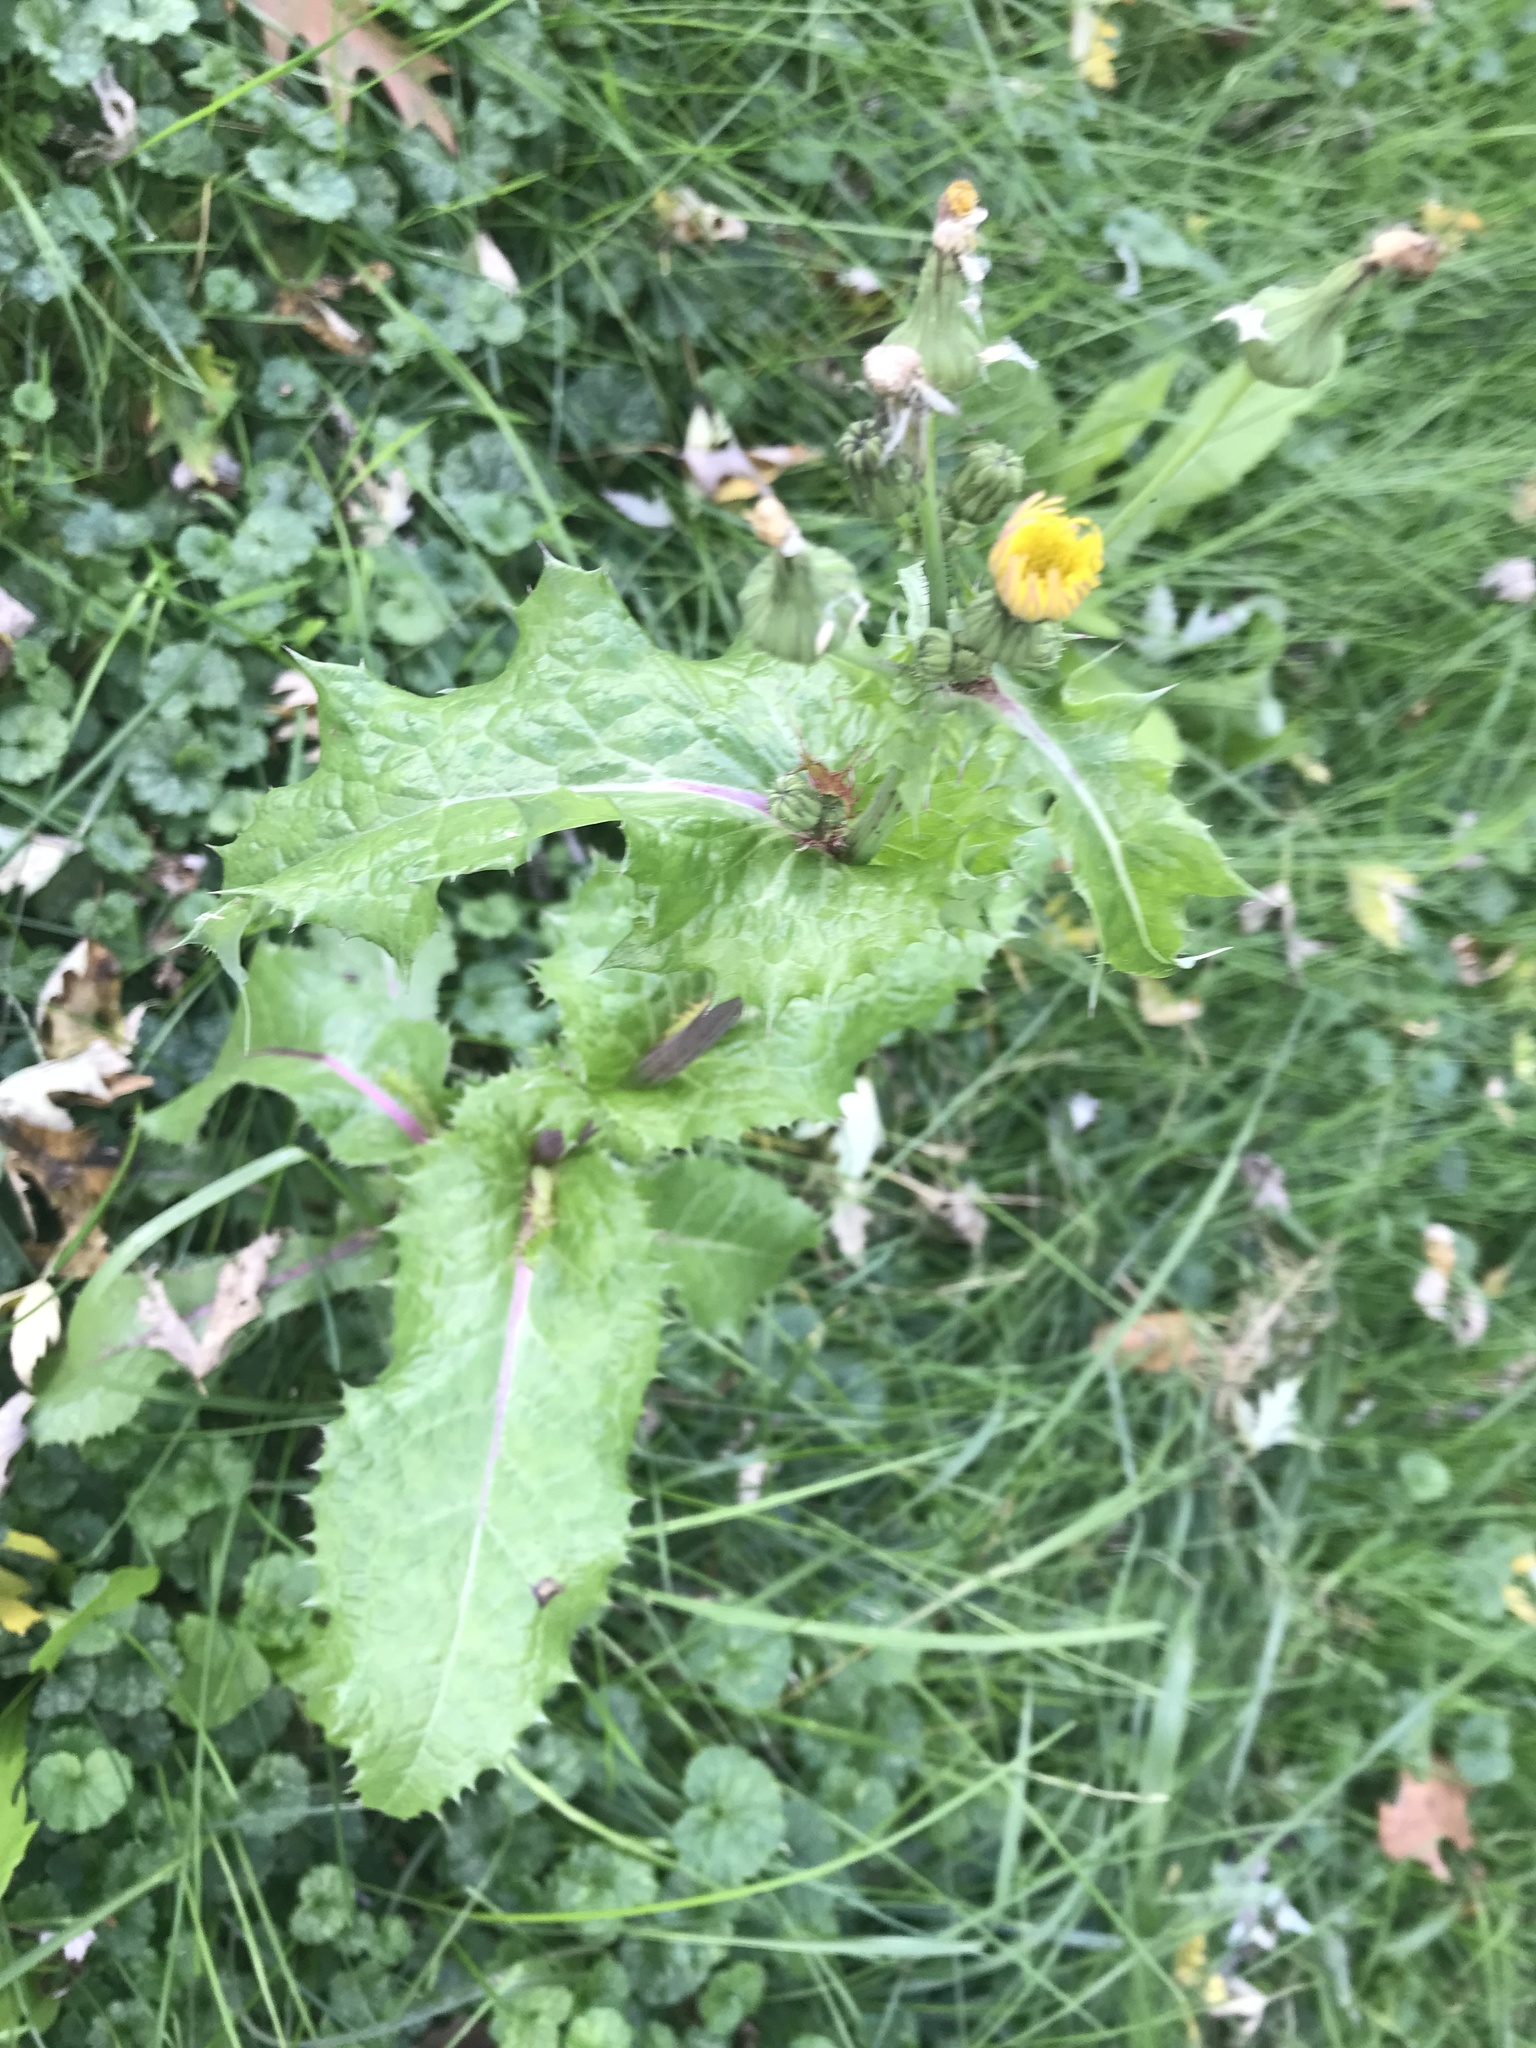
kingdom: Plantae
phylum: Tracheophyta
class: Magnoliopsida
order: Asterales
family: Asteraceae
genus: Sonchus
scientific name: Sonchus asper
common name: Prickly sow-thistle
